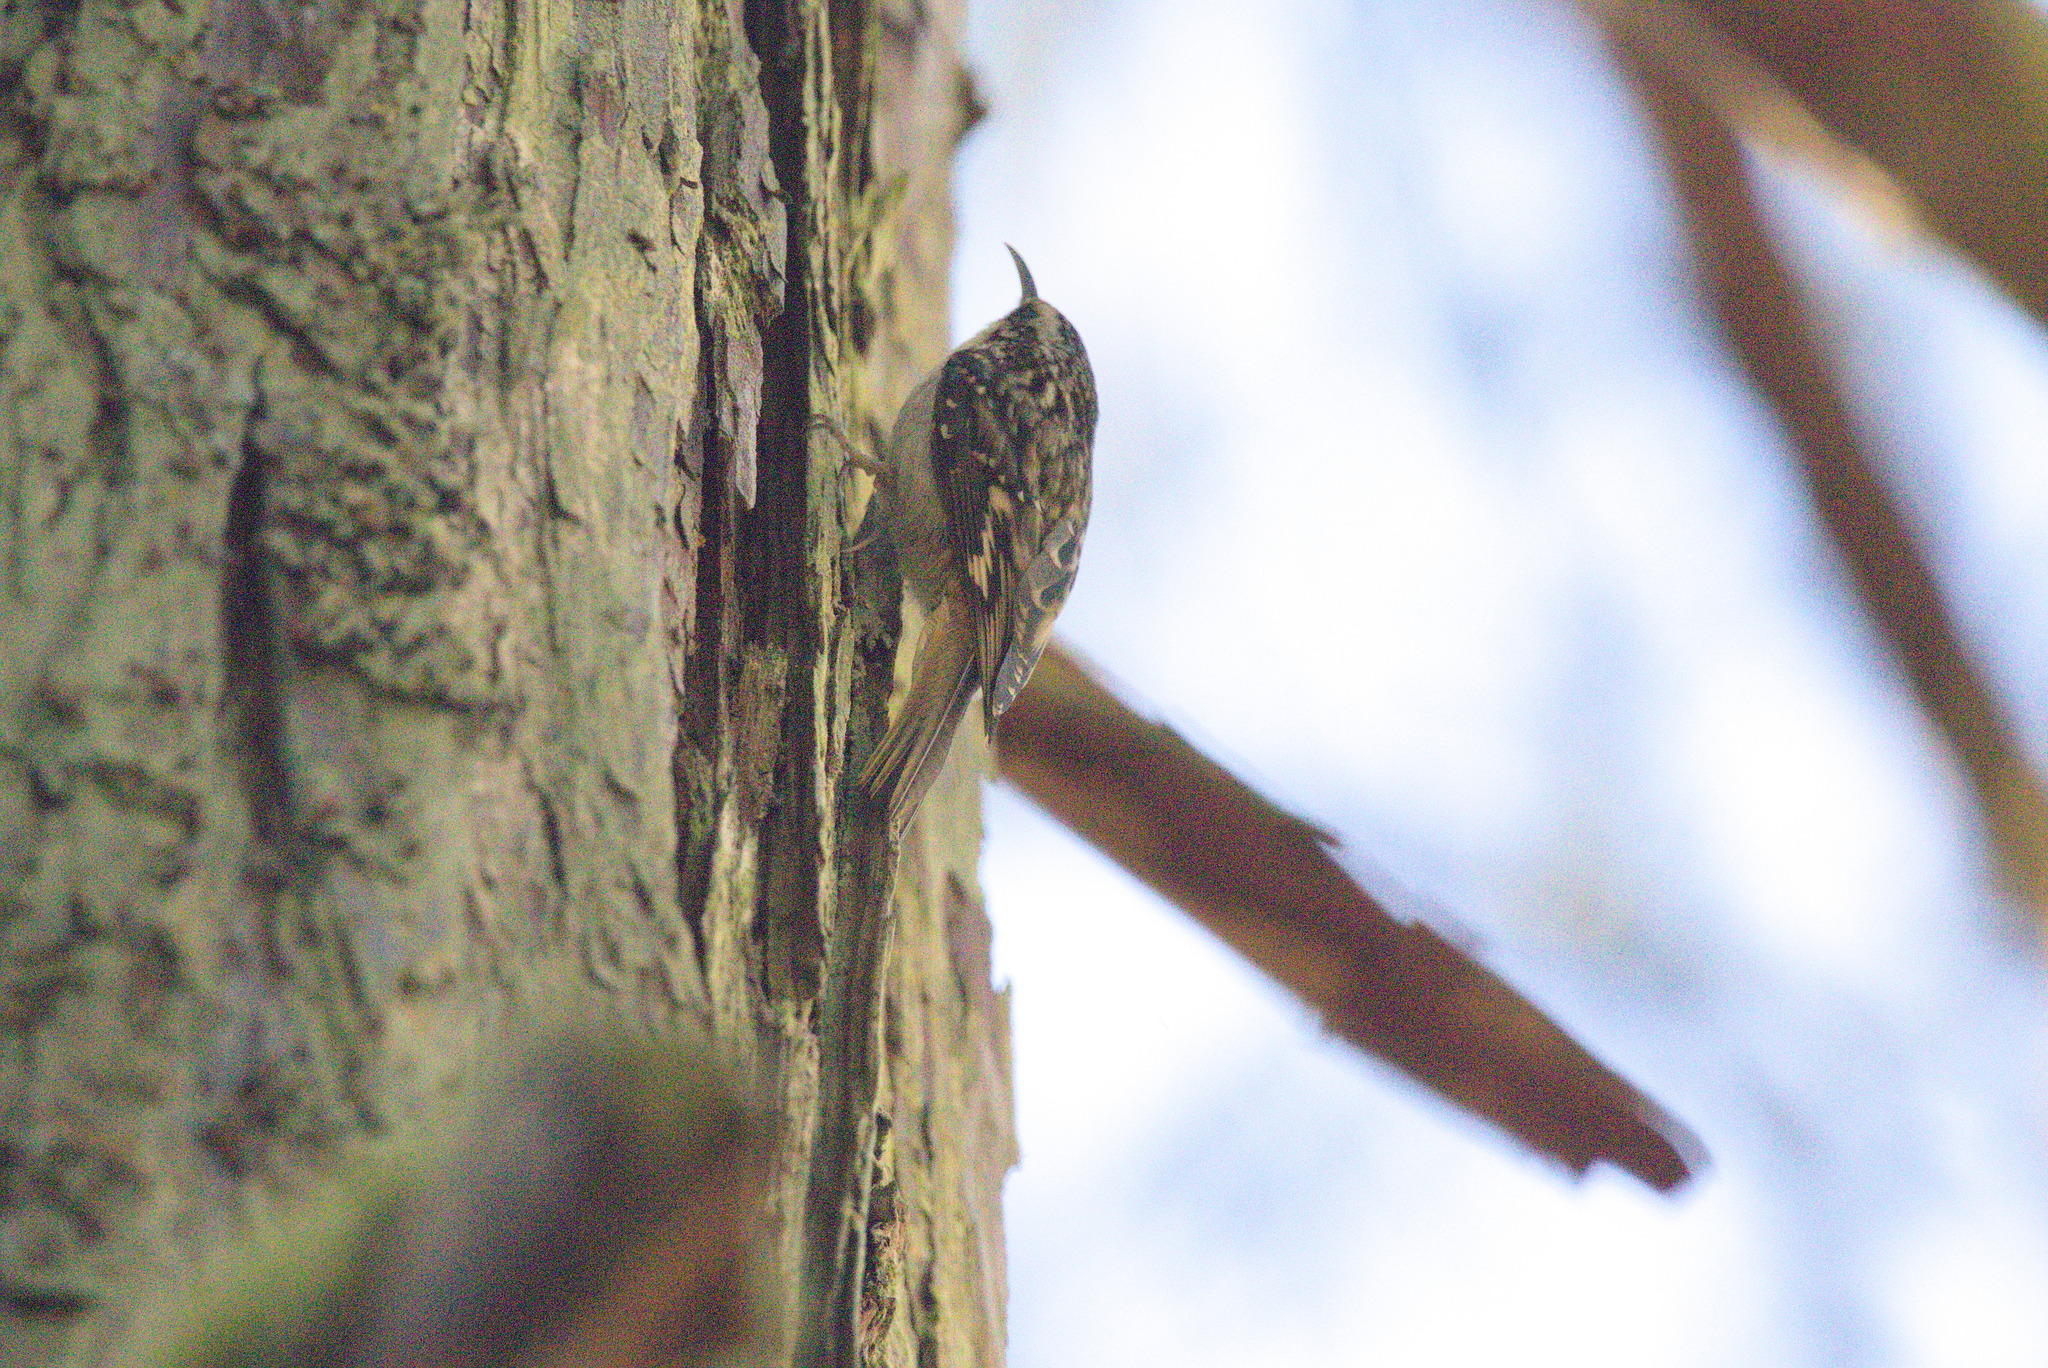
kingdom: Animalia
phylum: Chordata
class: Aves
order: Passeriformes
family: Certhiidae
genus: Certhia
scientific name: Certhia americana
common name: Brown creeper
